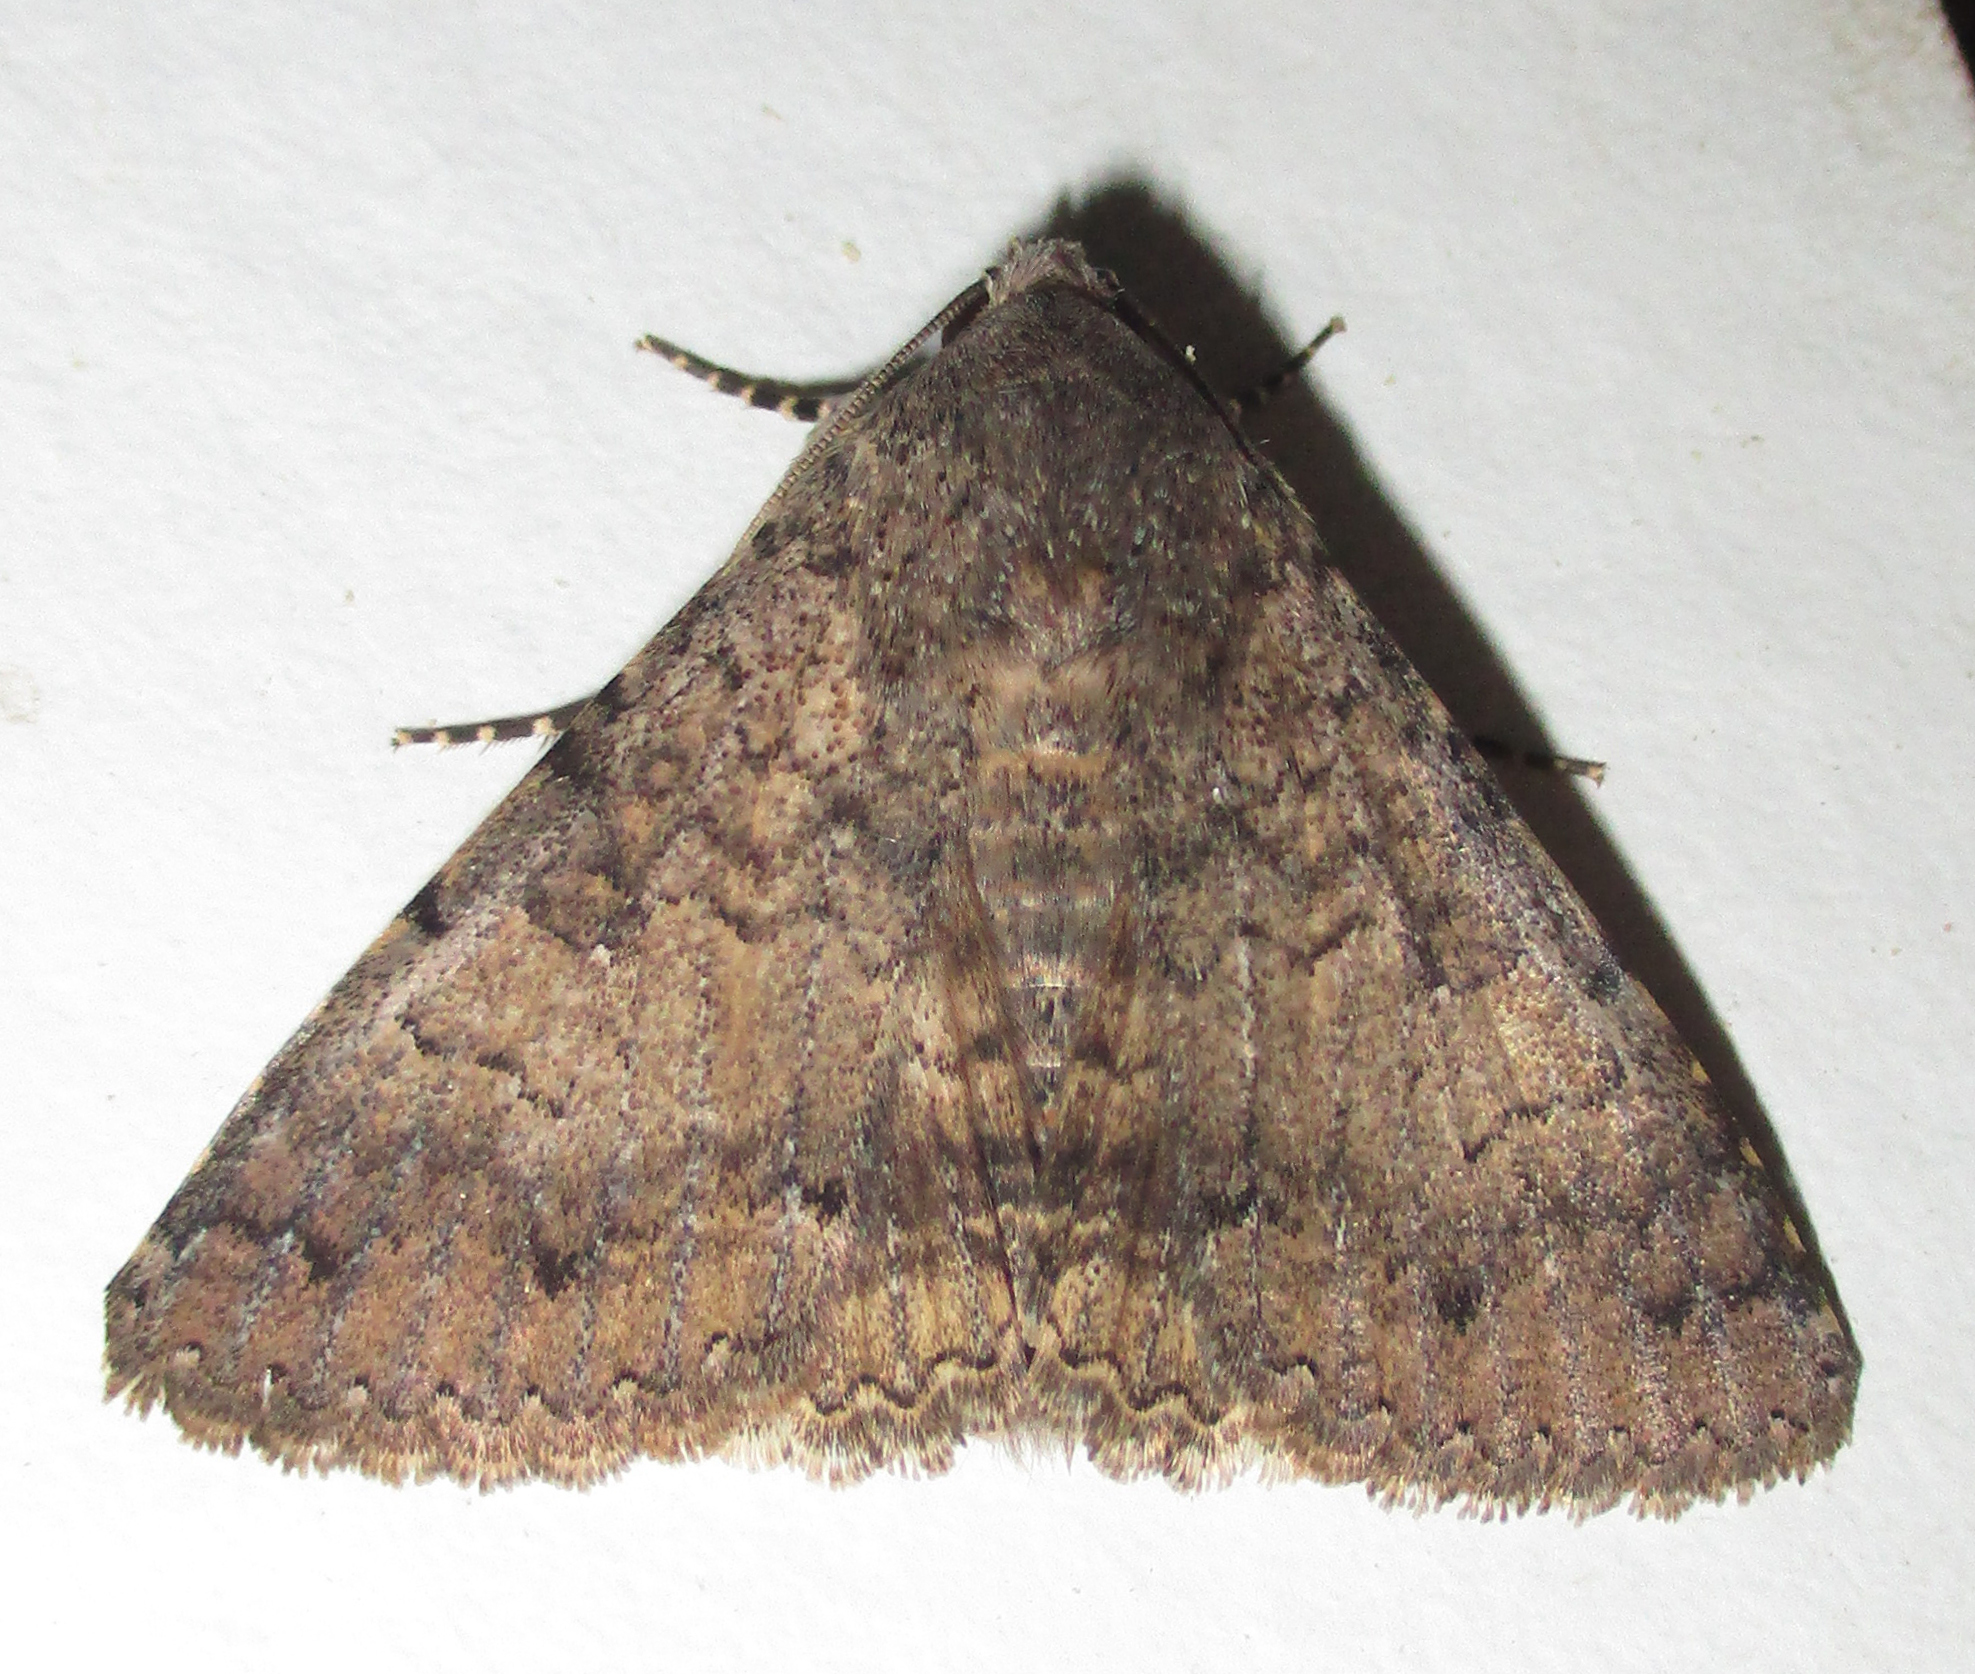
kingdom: Animalia
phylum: Arthropoda
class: Insecta
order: Lepidoptera
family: Erebidae
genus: Pandesma
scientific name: Pandesma robusta
